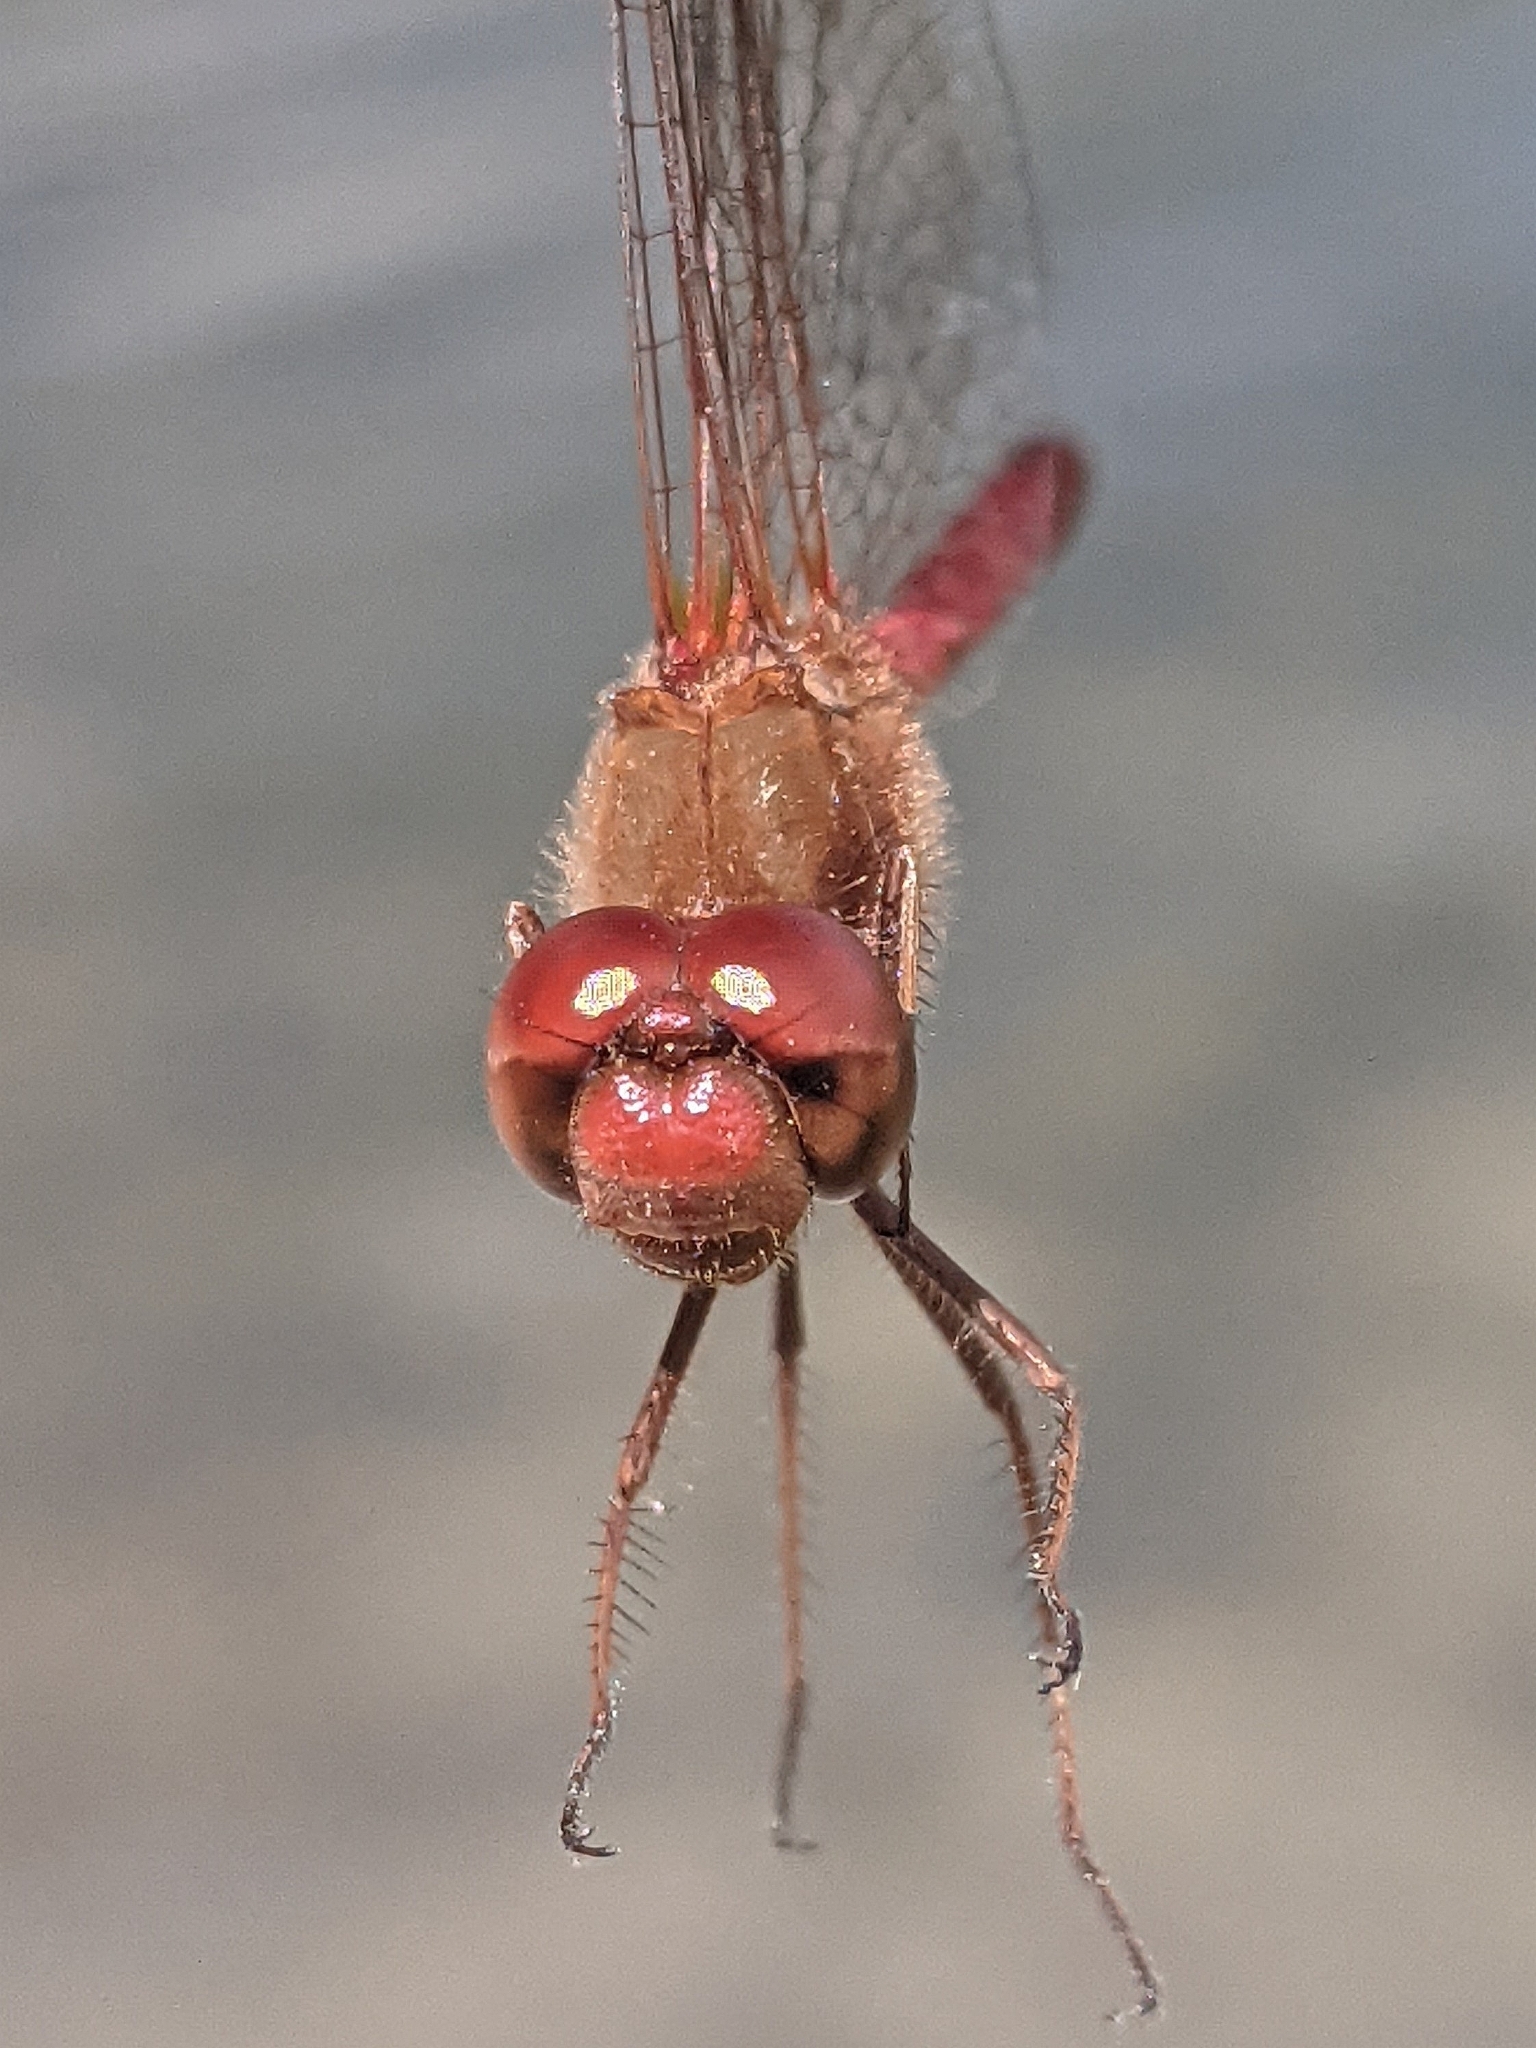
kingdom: Animalia
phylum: Arthropoda
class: Insecta
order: Odonata
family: Libellulidae
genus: Sympetrum
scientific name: Sympetrum vicinum
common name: Autumn meadowhawk
